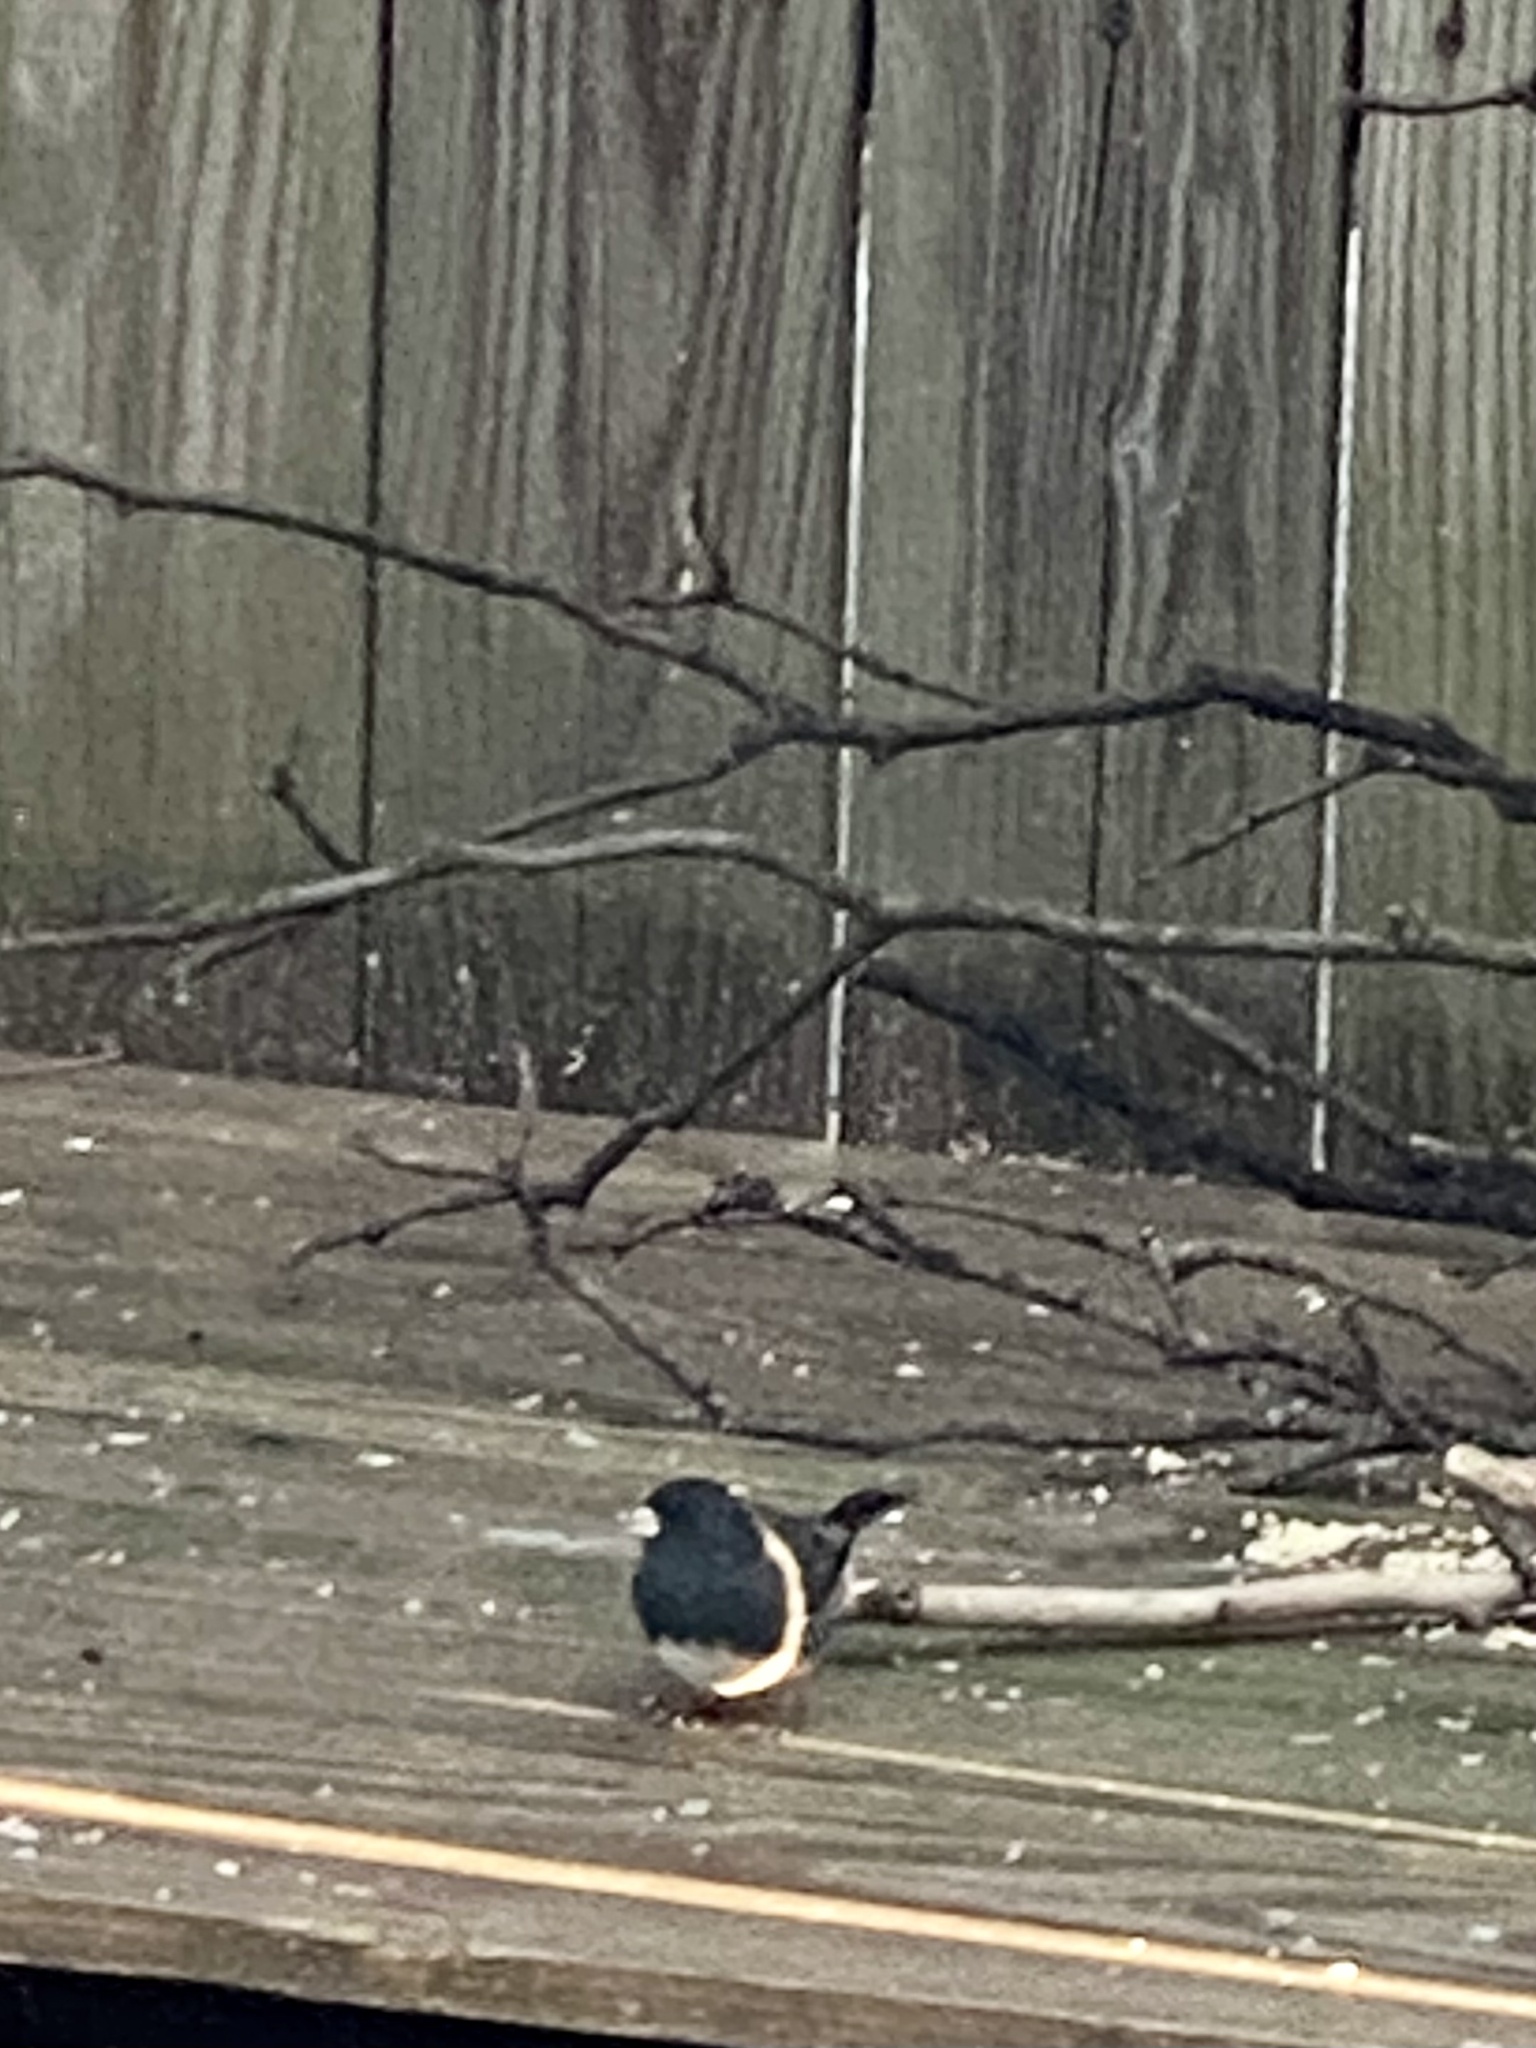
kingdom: Animalia
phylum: Chordata
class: Aves
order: Passeriformes
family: Passerellidae
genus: Junco
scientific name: Junco hyemalis
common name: Dark-eyed junco
